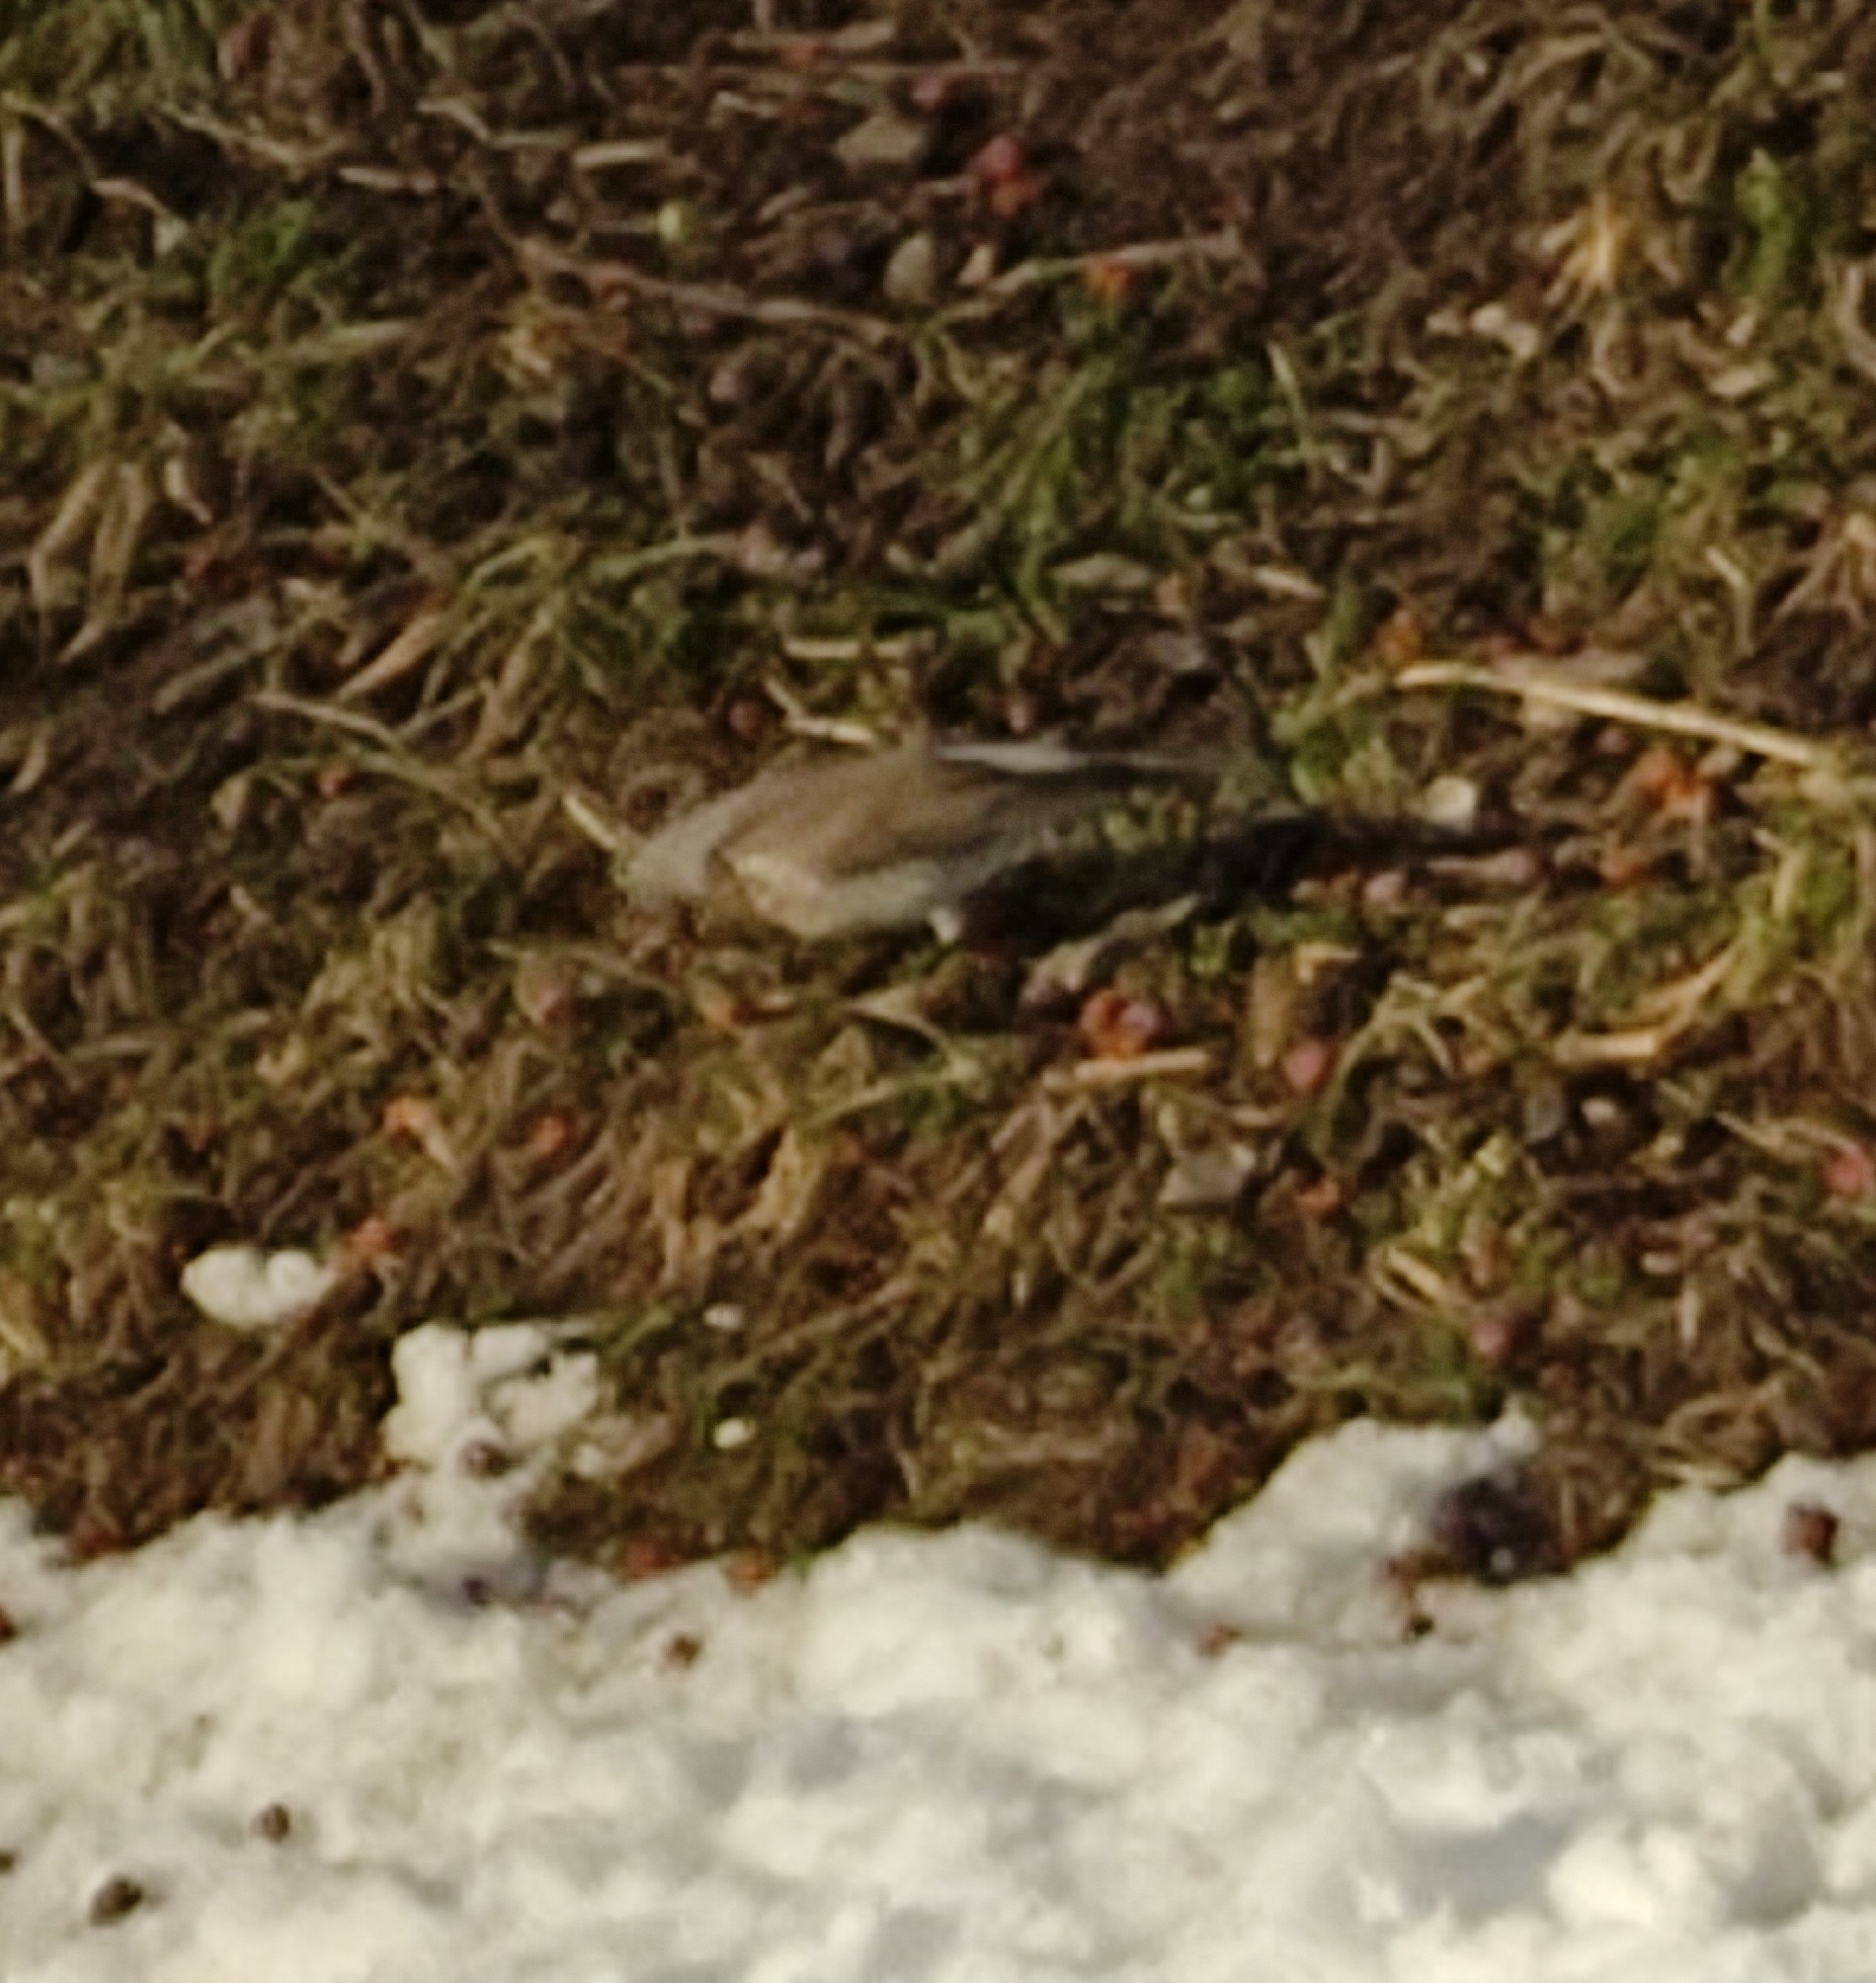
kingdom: Animalia
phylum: Chordata
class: Aves
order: Passeriformes
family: Turdidae
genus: Turdus
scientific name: Turdus pilaris
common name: Fieldfare
